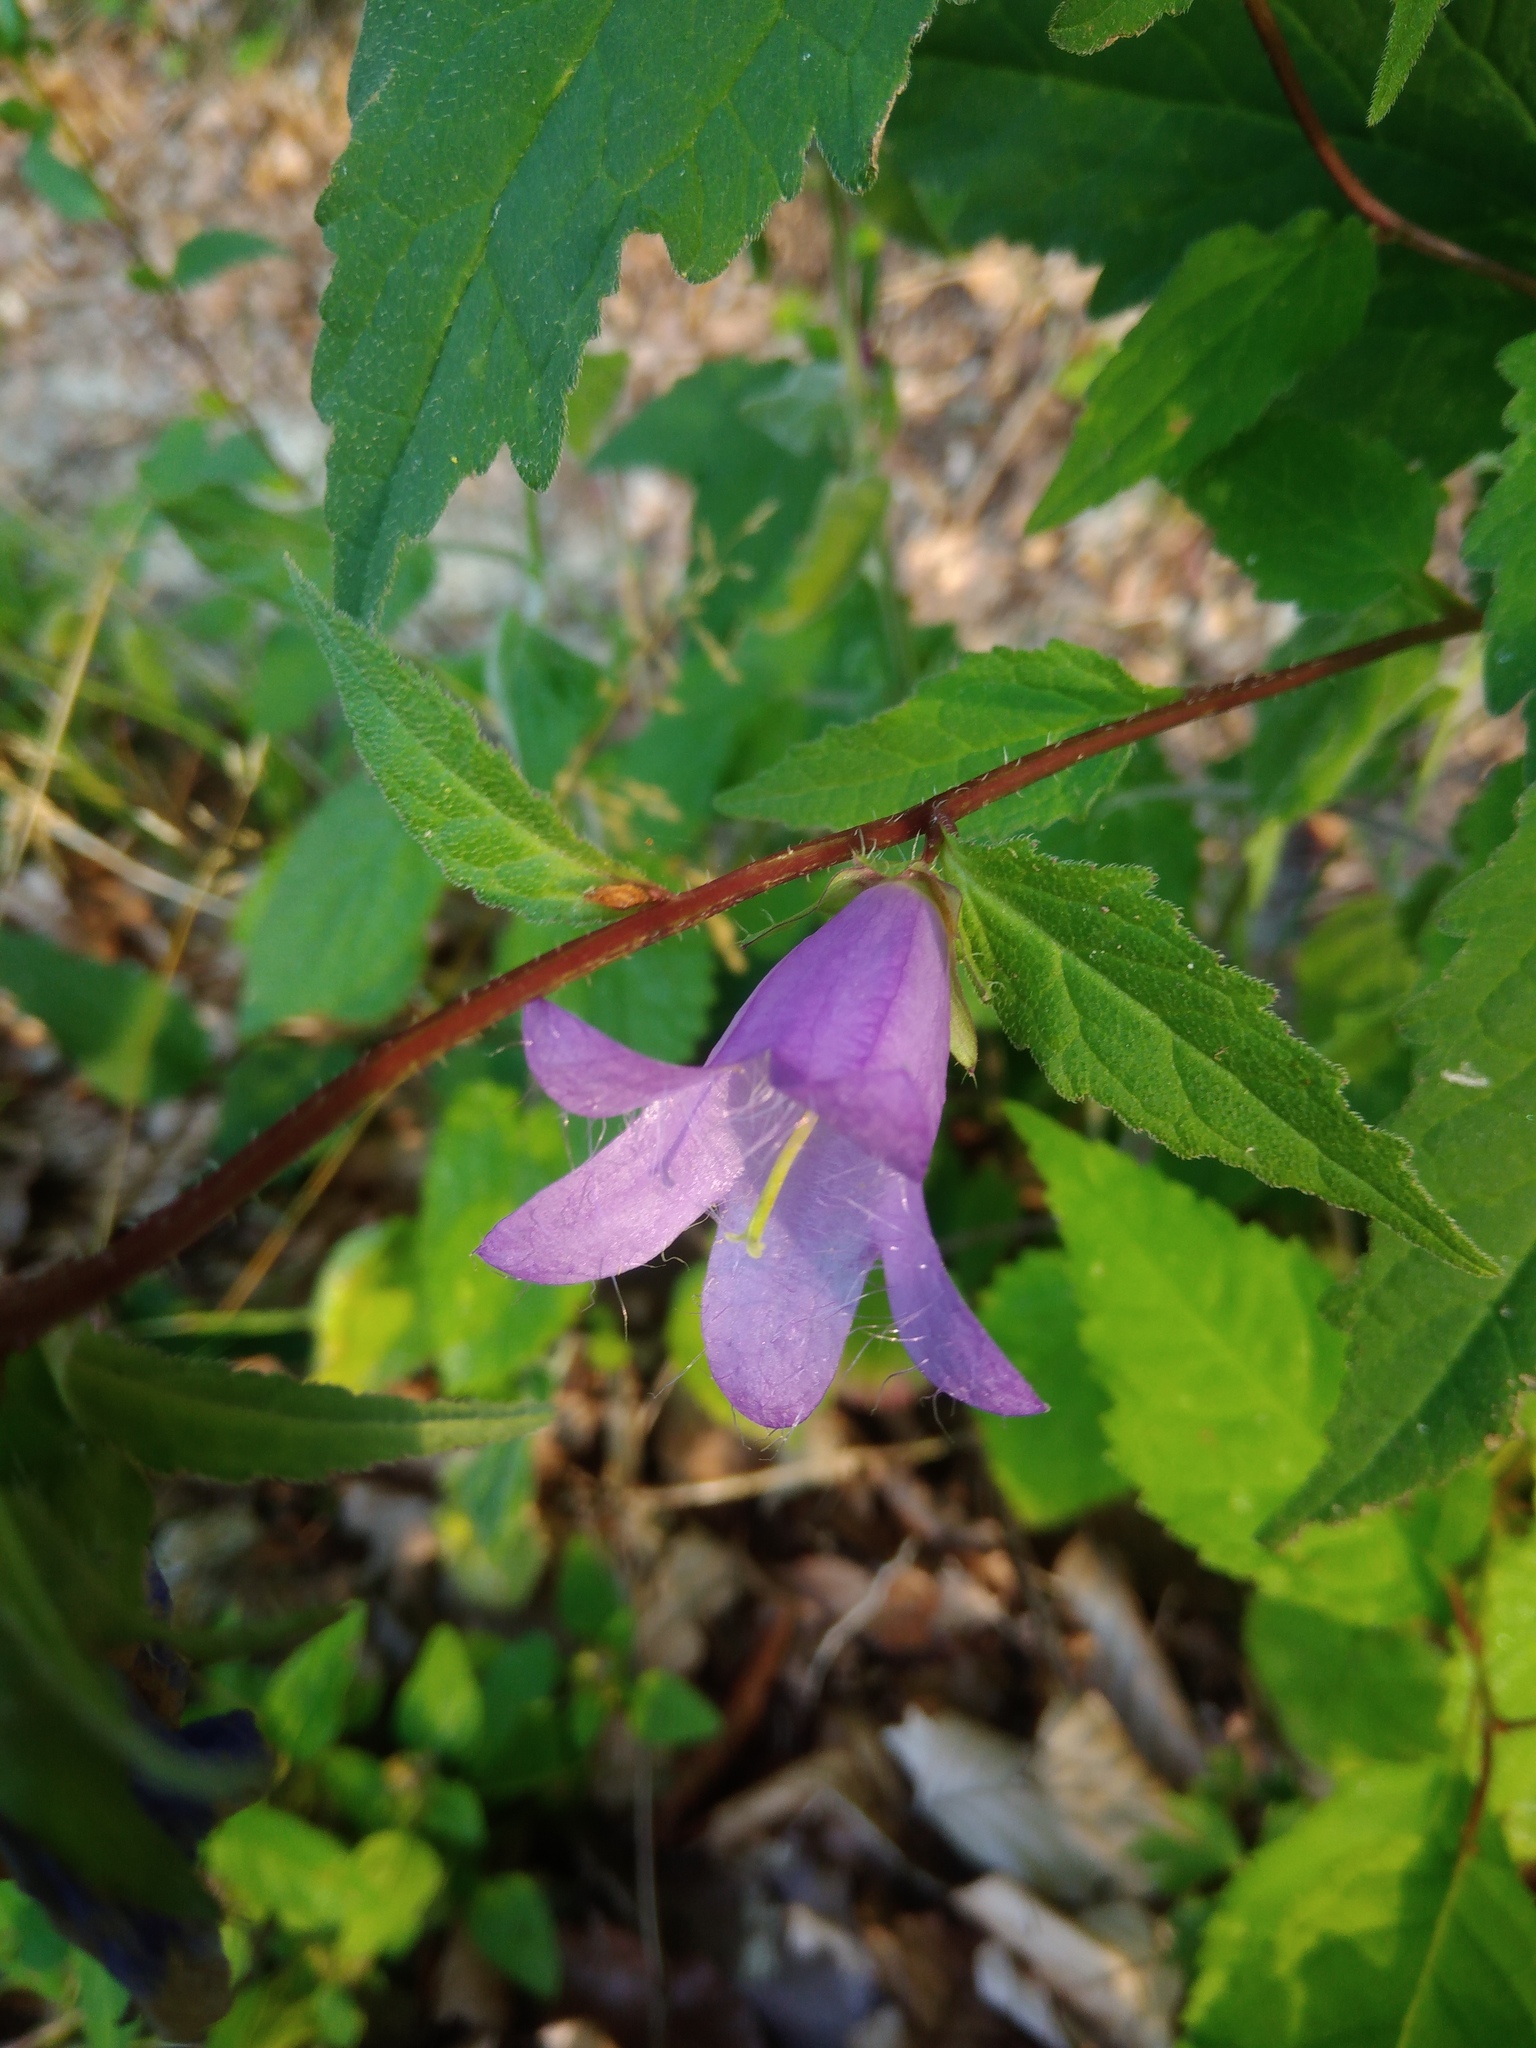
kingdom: Plantae
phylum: Tracheophyta
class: Magnoliopsida
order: Asterales
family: Campanulaceae
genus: Campanula
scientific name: Campanula trachelium
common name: Nettle-leaved bellflower
